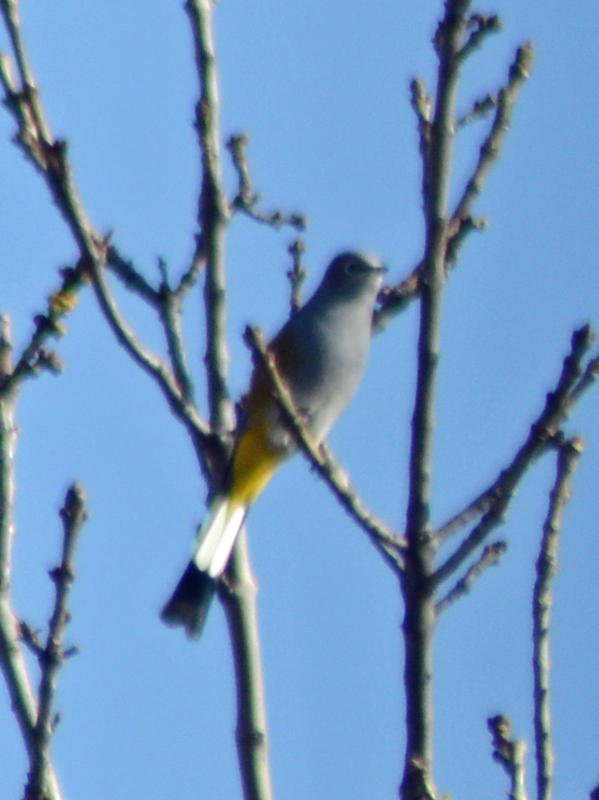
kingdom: Animalia
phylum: Chordata
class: Aves
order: Passeriformes
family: Ptilogonatidae
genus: Ptilogonys
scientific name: Ptilogonys cinereus
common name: Gray silky-flycatcher
